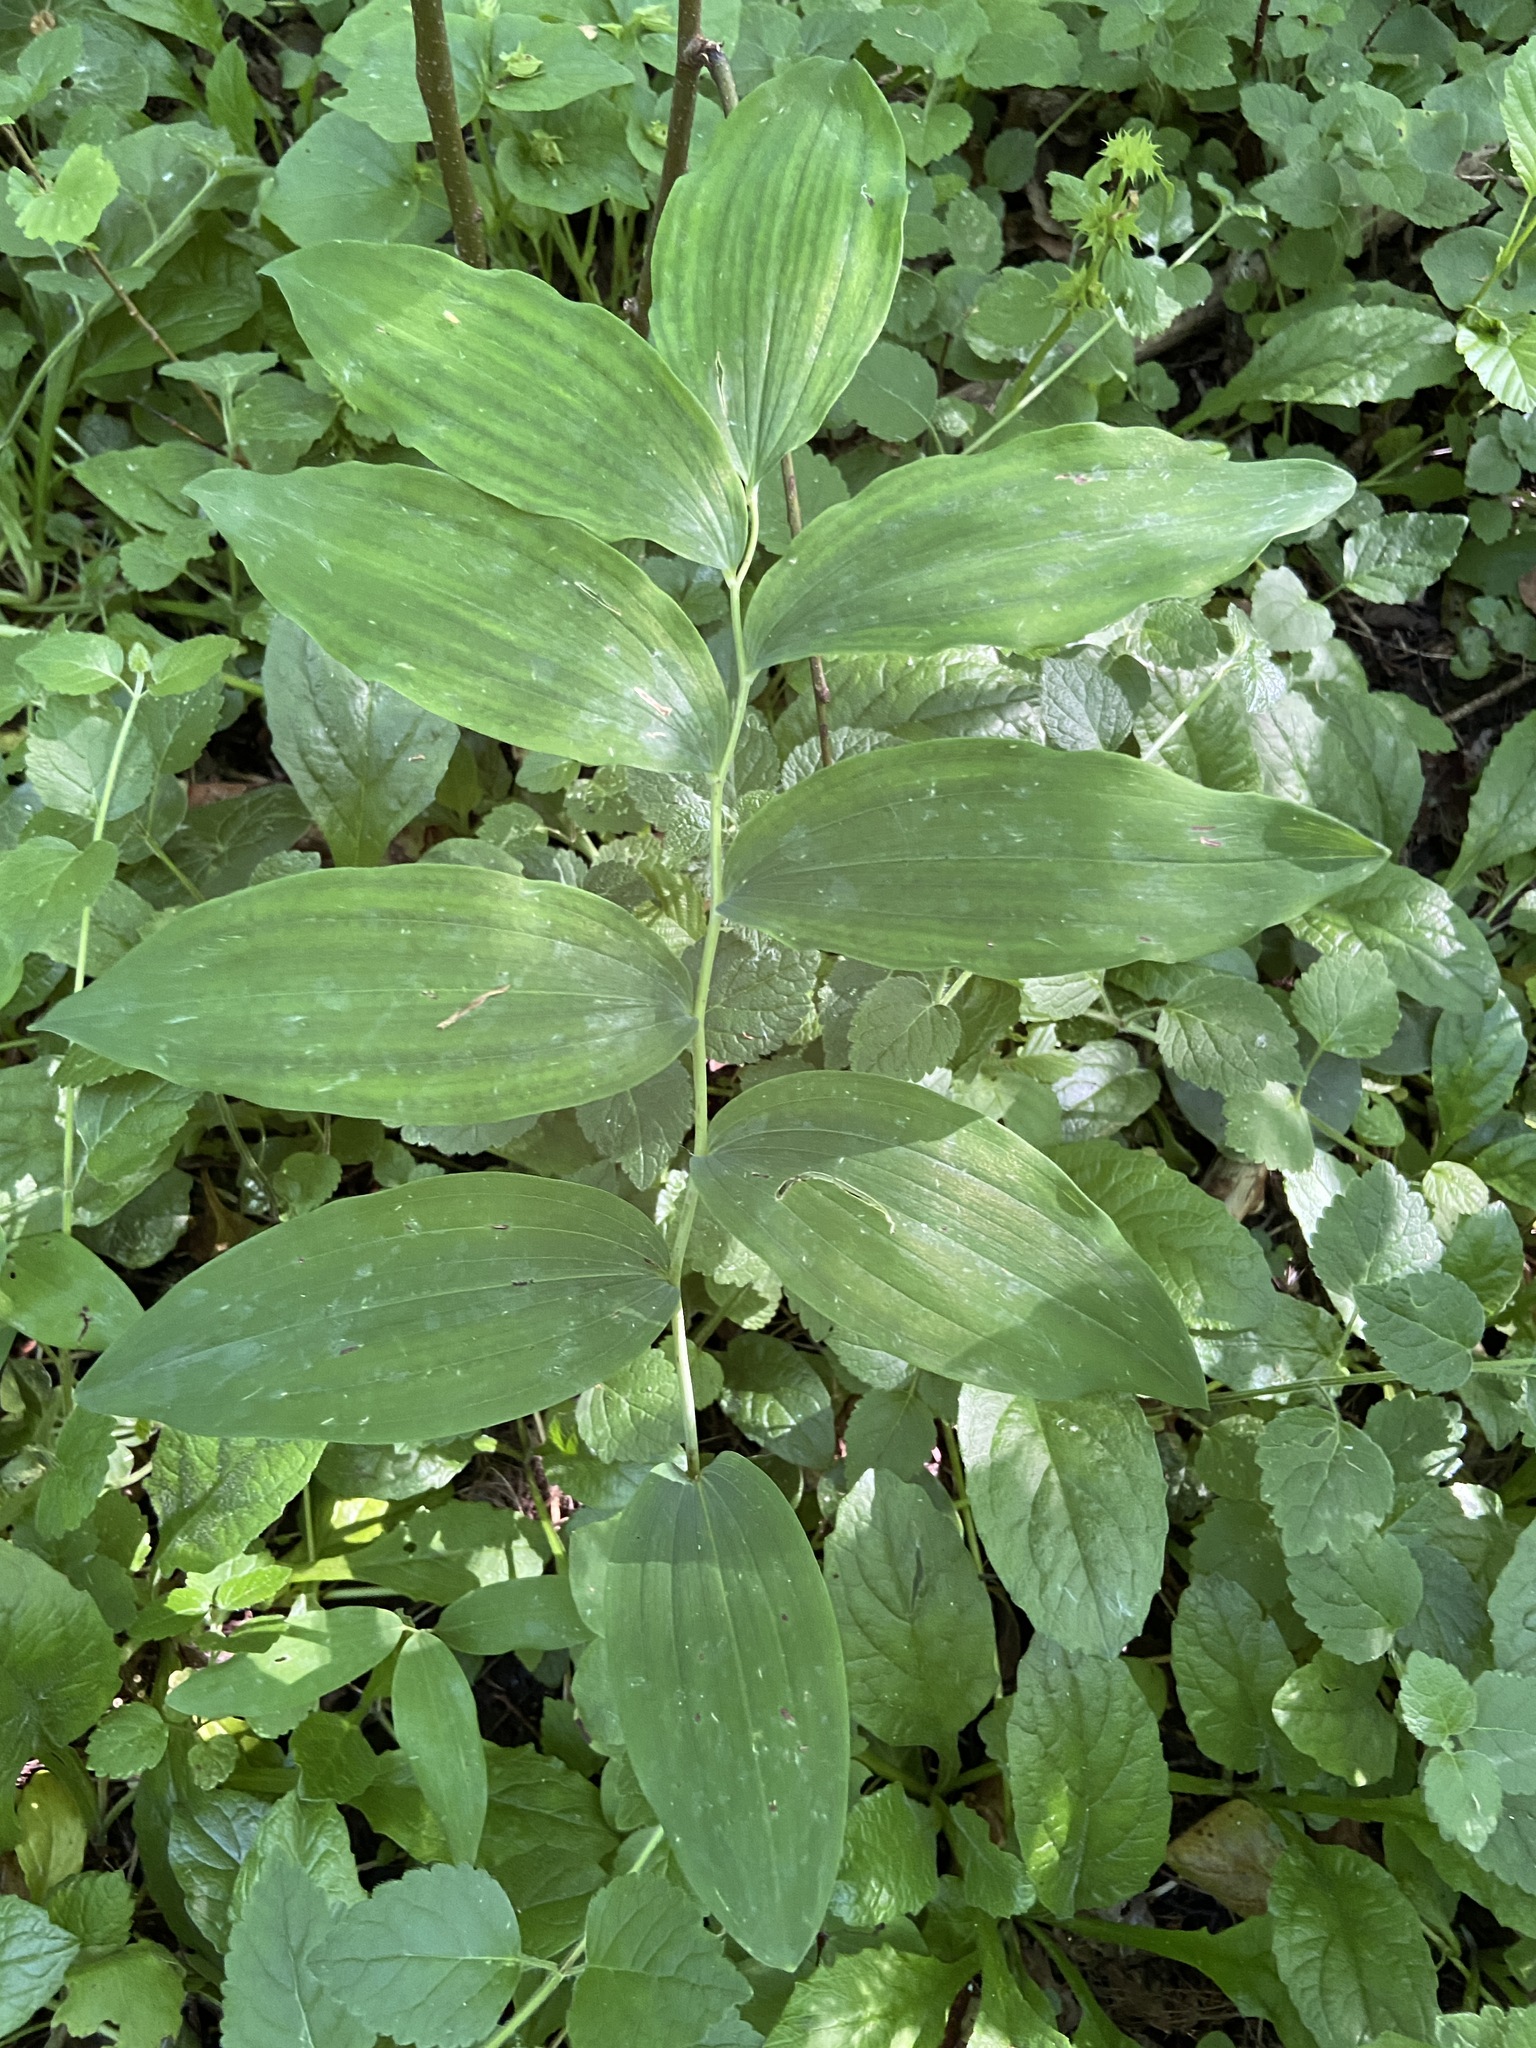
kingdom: Plantae
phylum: Tracheophyta
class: Liliopsida
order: Asparagales
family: Asparagaceae
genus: Polygonatum
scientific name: Polygonatum multiflorum
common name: Solomon's-seal
